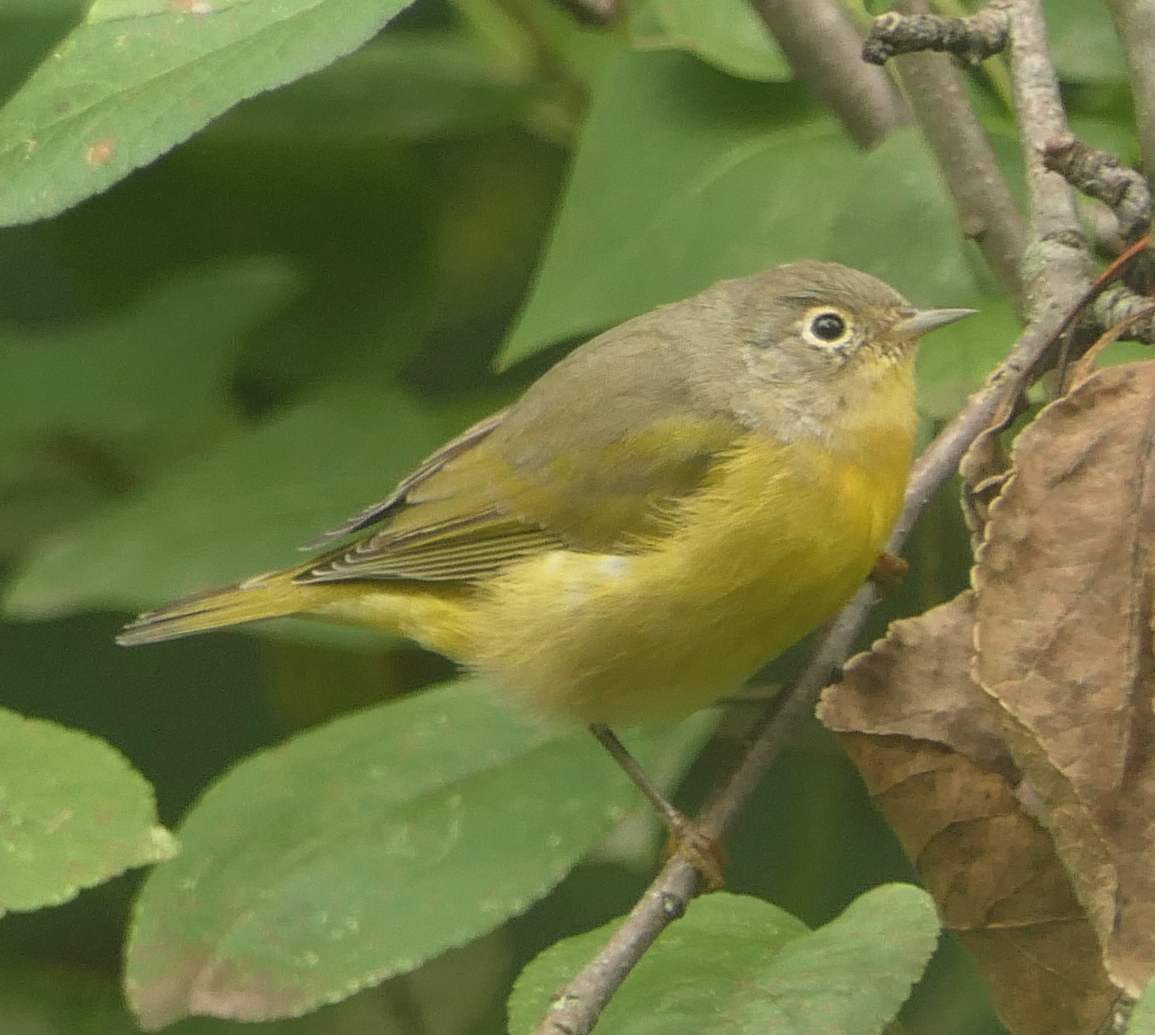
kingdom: Animalia
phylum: Chordata
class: Aves
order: Passeriformes
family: Parulidae
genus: Leiothlypis
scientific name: Leiothlypis ruficapilla
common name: Nashville warbler
